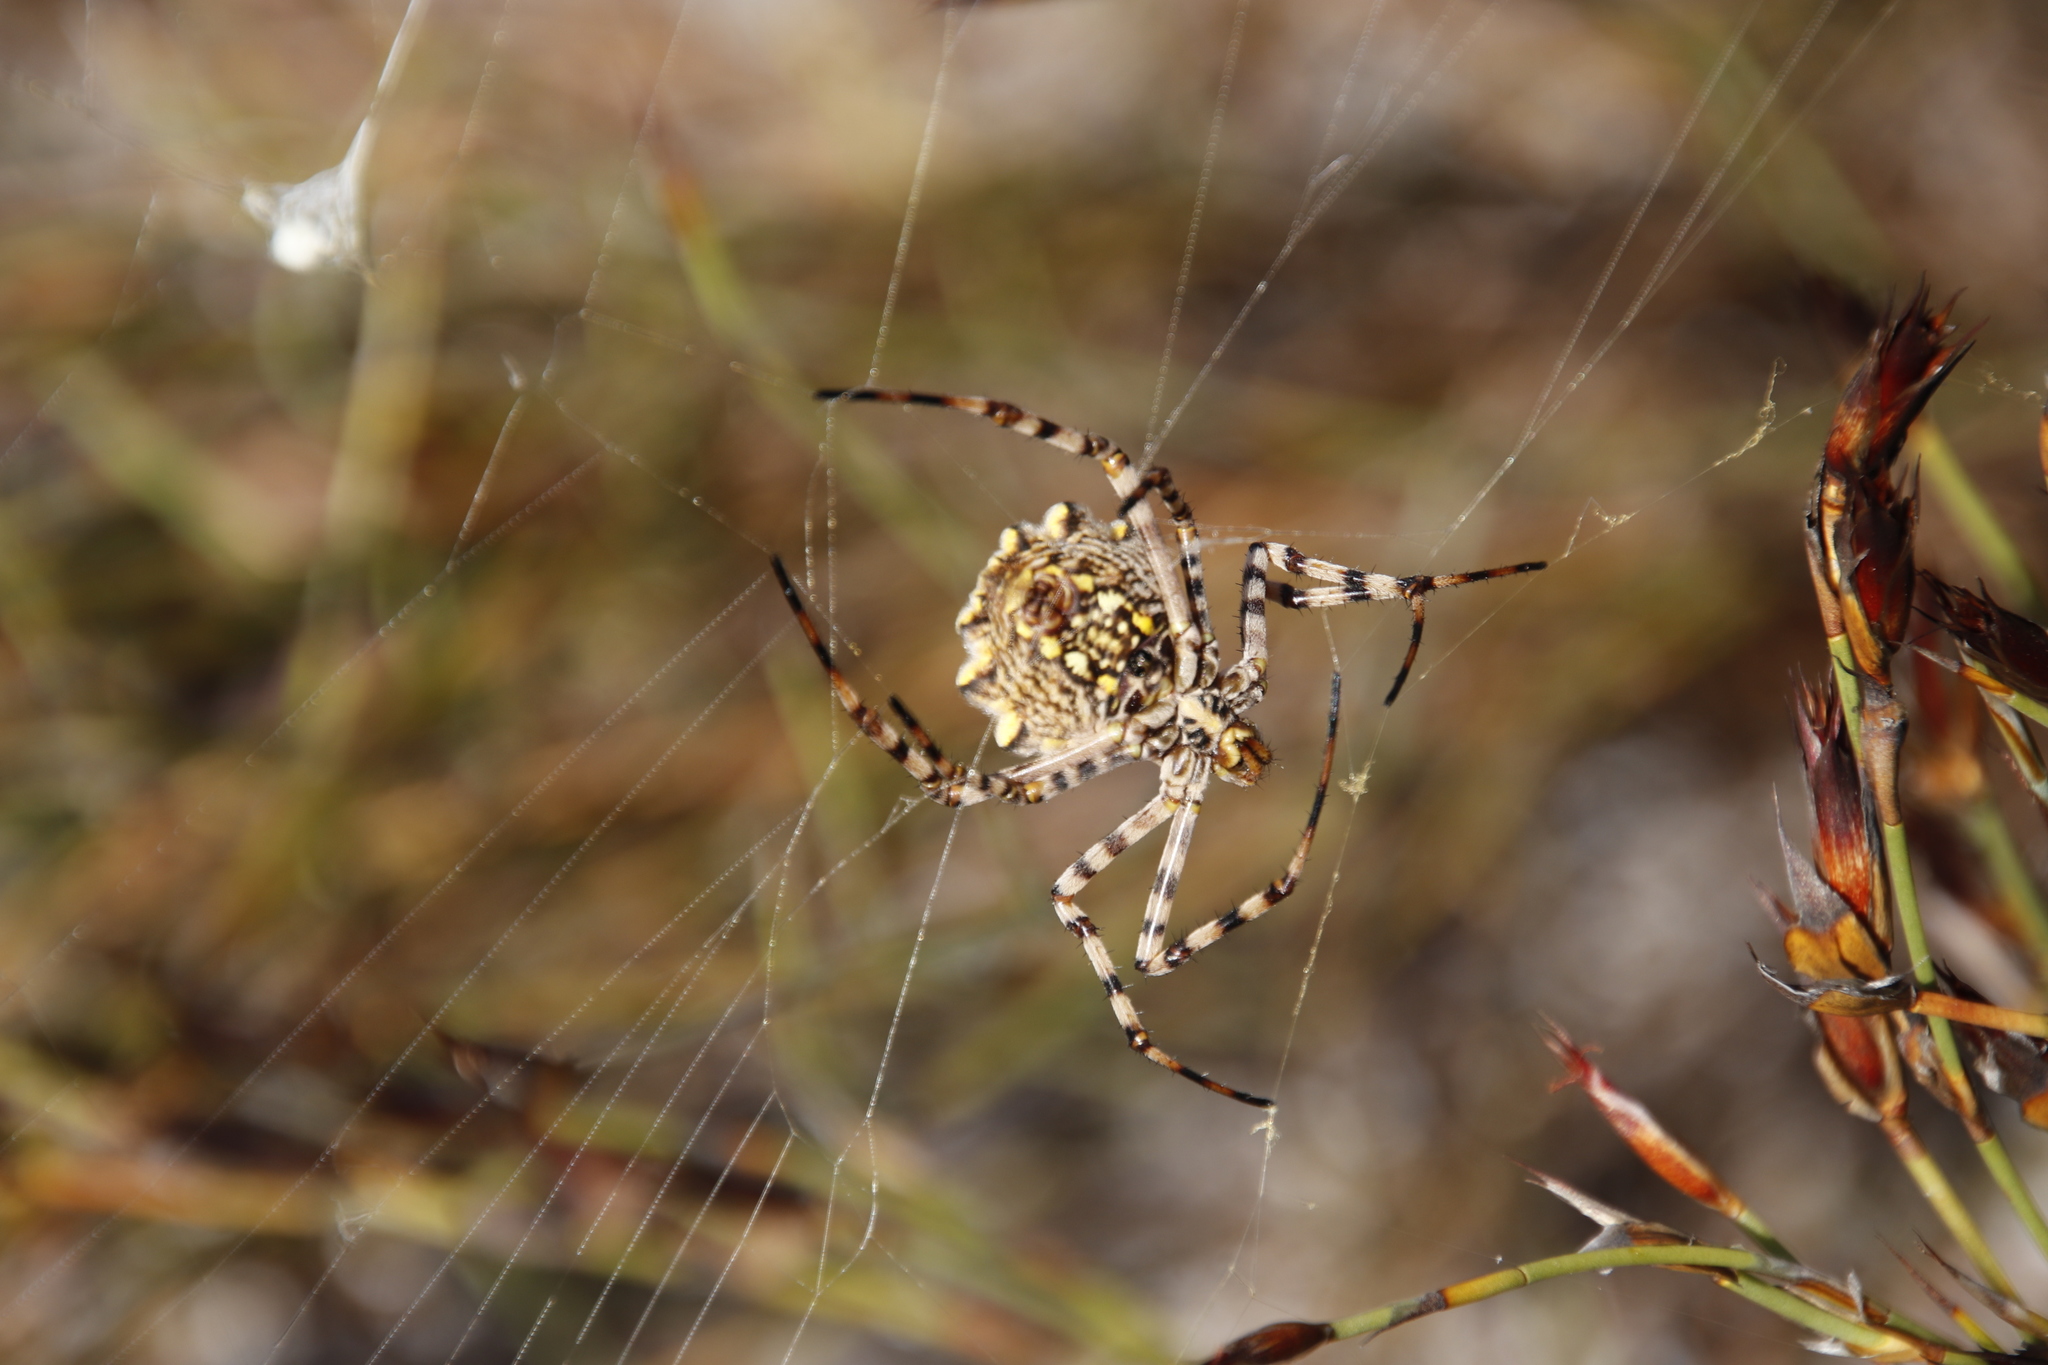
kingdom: Animalia
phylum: Arthropoda
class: Arachnida
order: Araneae
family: Araneidae
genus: Argiope
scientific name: Argiope australis
